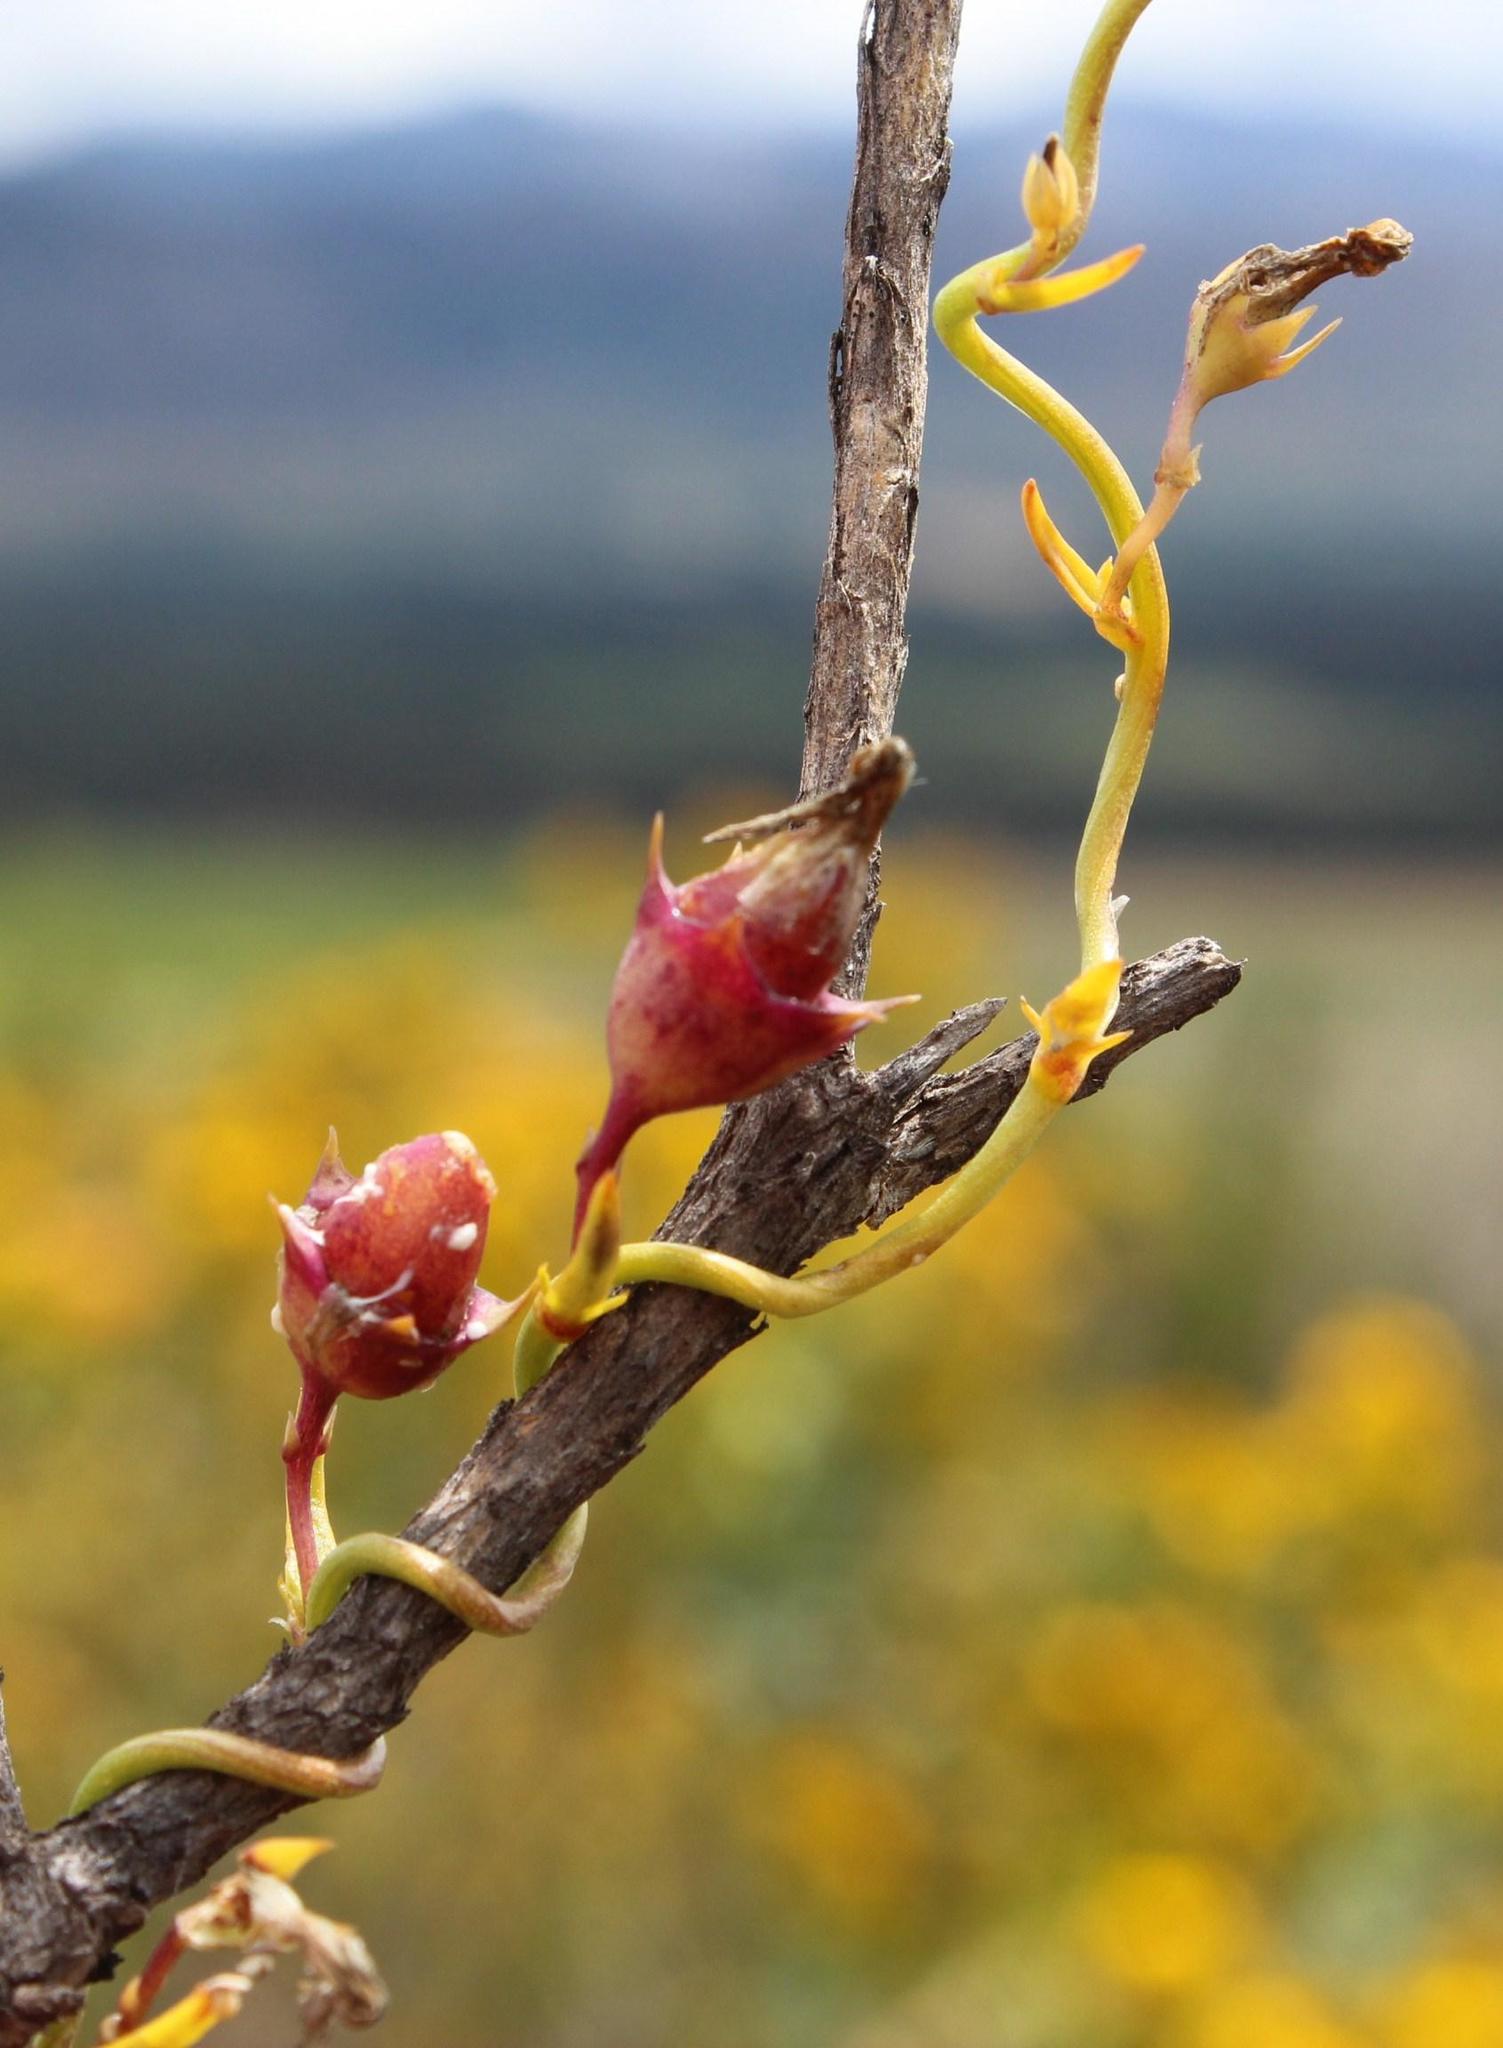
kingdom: Plantae
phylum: Tracheophyta
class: Magnoliopsida
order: Asterales
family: Campanulaceae
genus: Cyphia
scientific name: Cyphia volubilis
